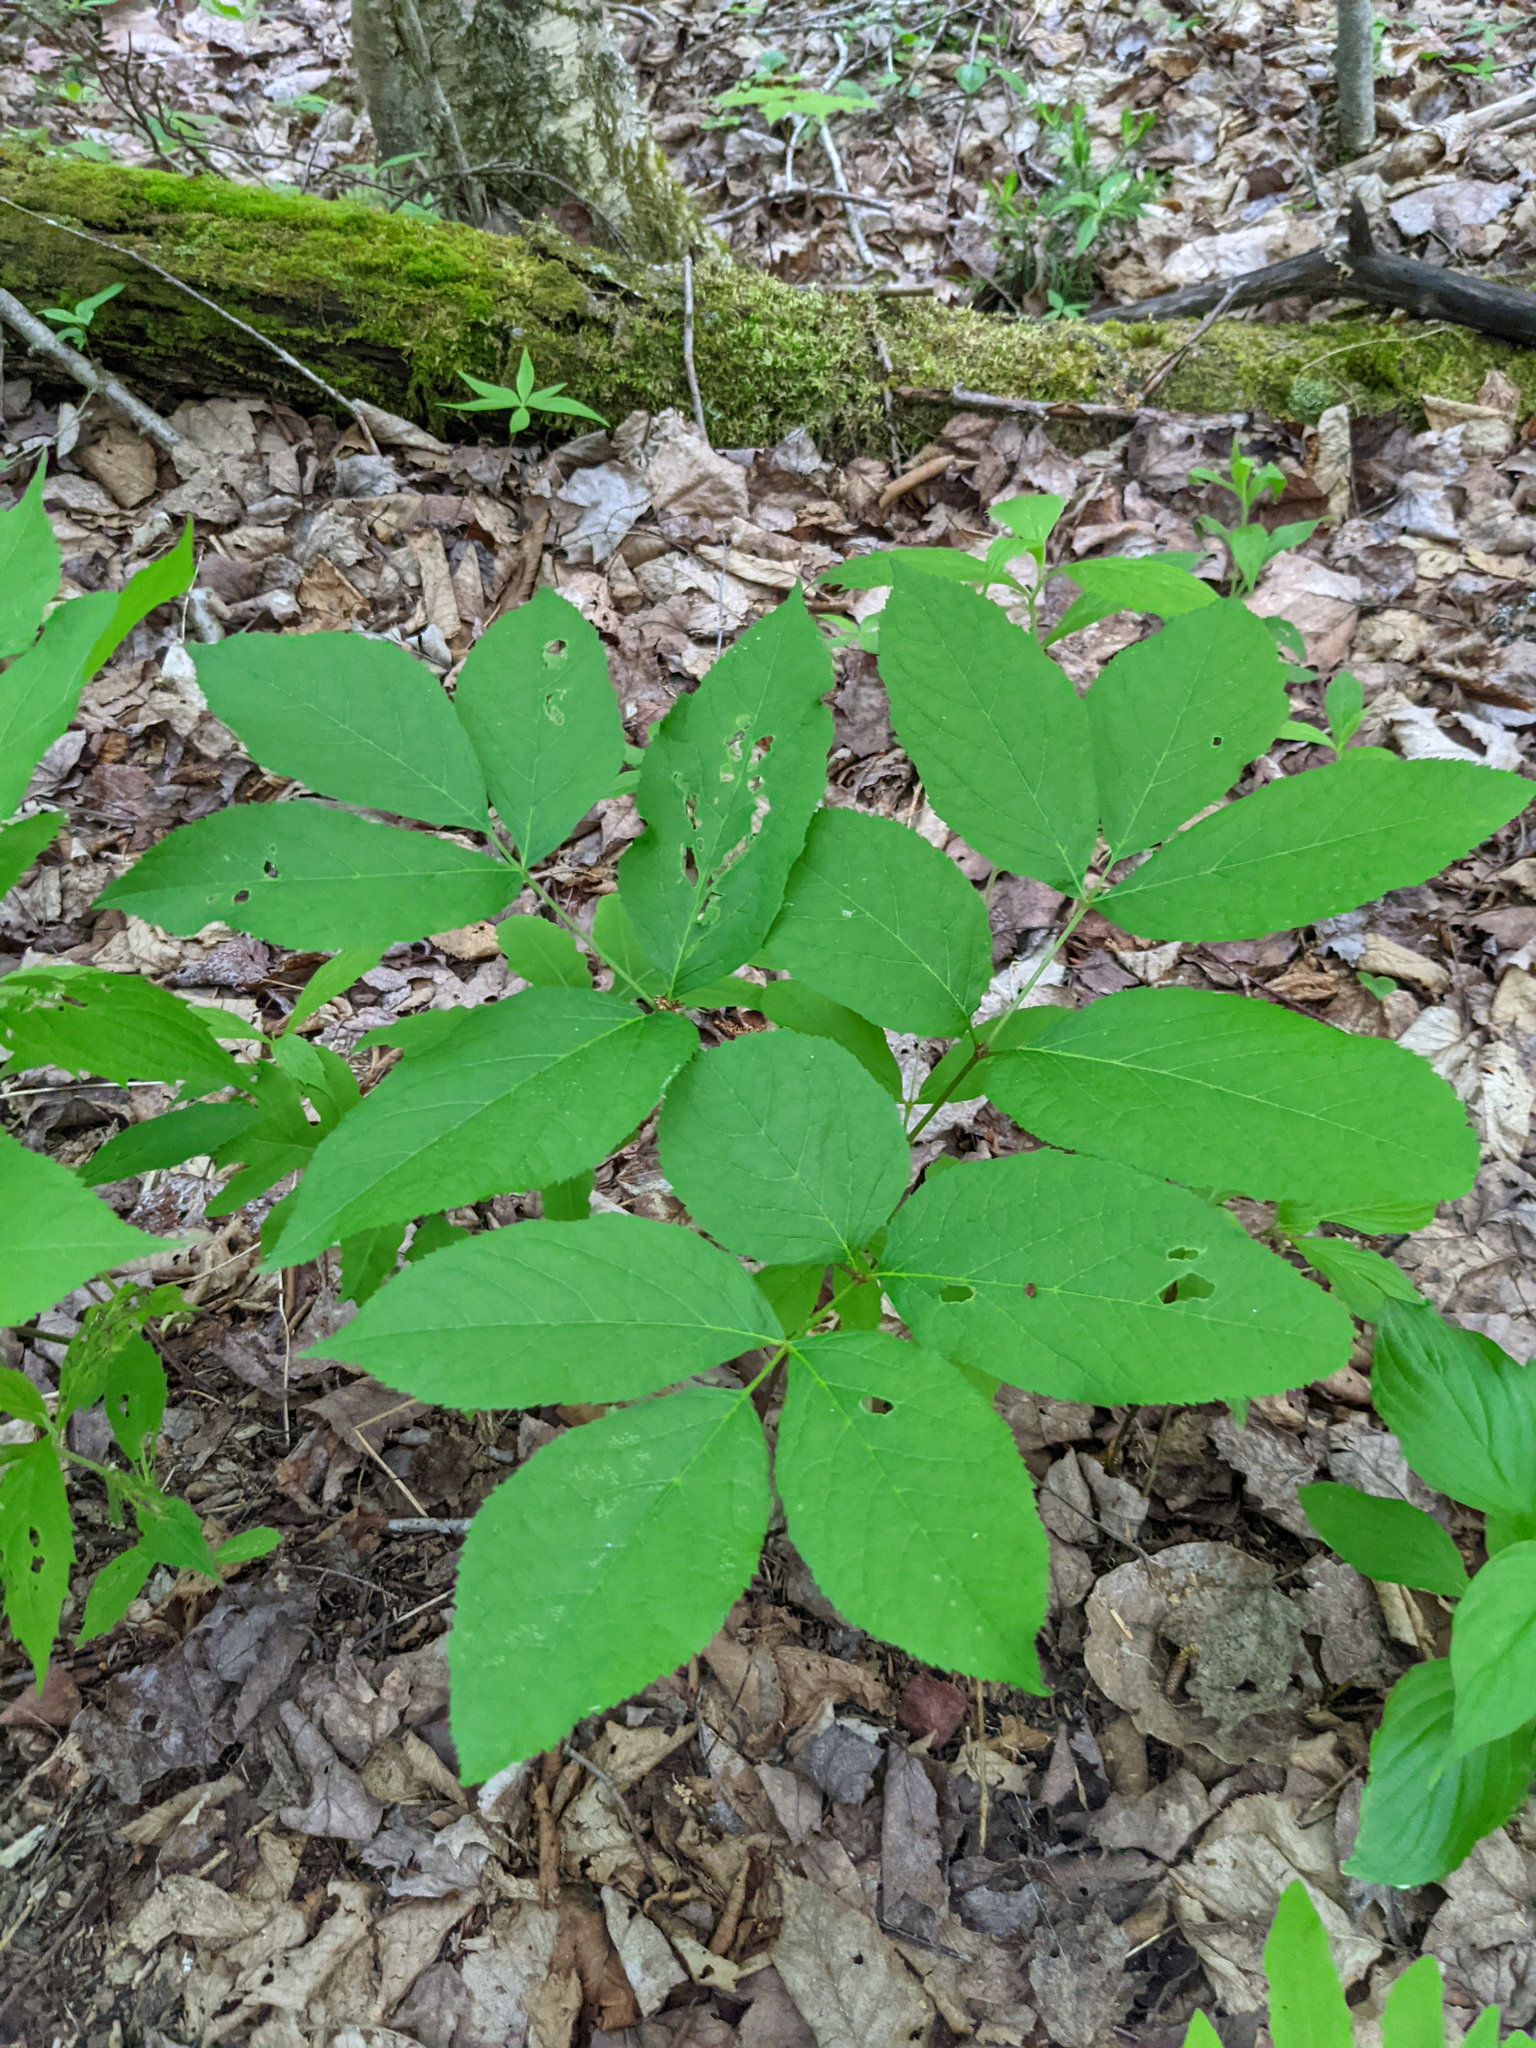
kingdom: Plantae
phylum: Tracheophyta
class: Magnoliopsida
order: Apiales
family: Araliaceae
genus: Aralia
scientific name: Aralia nudicaulis
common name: Wild sarsaparilla
